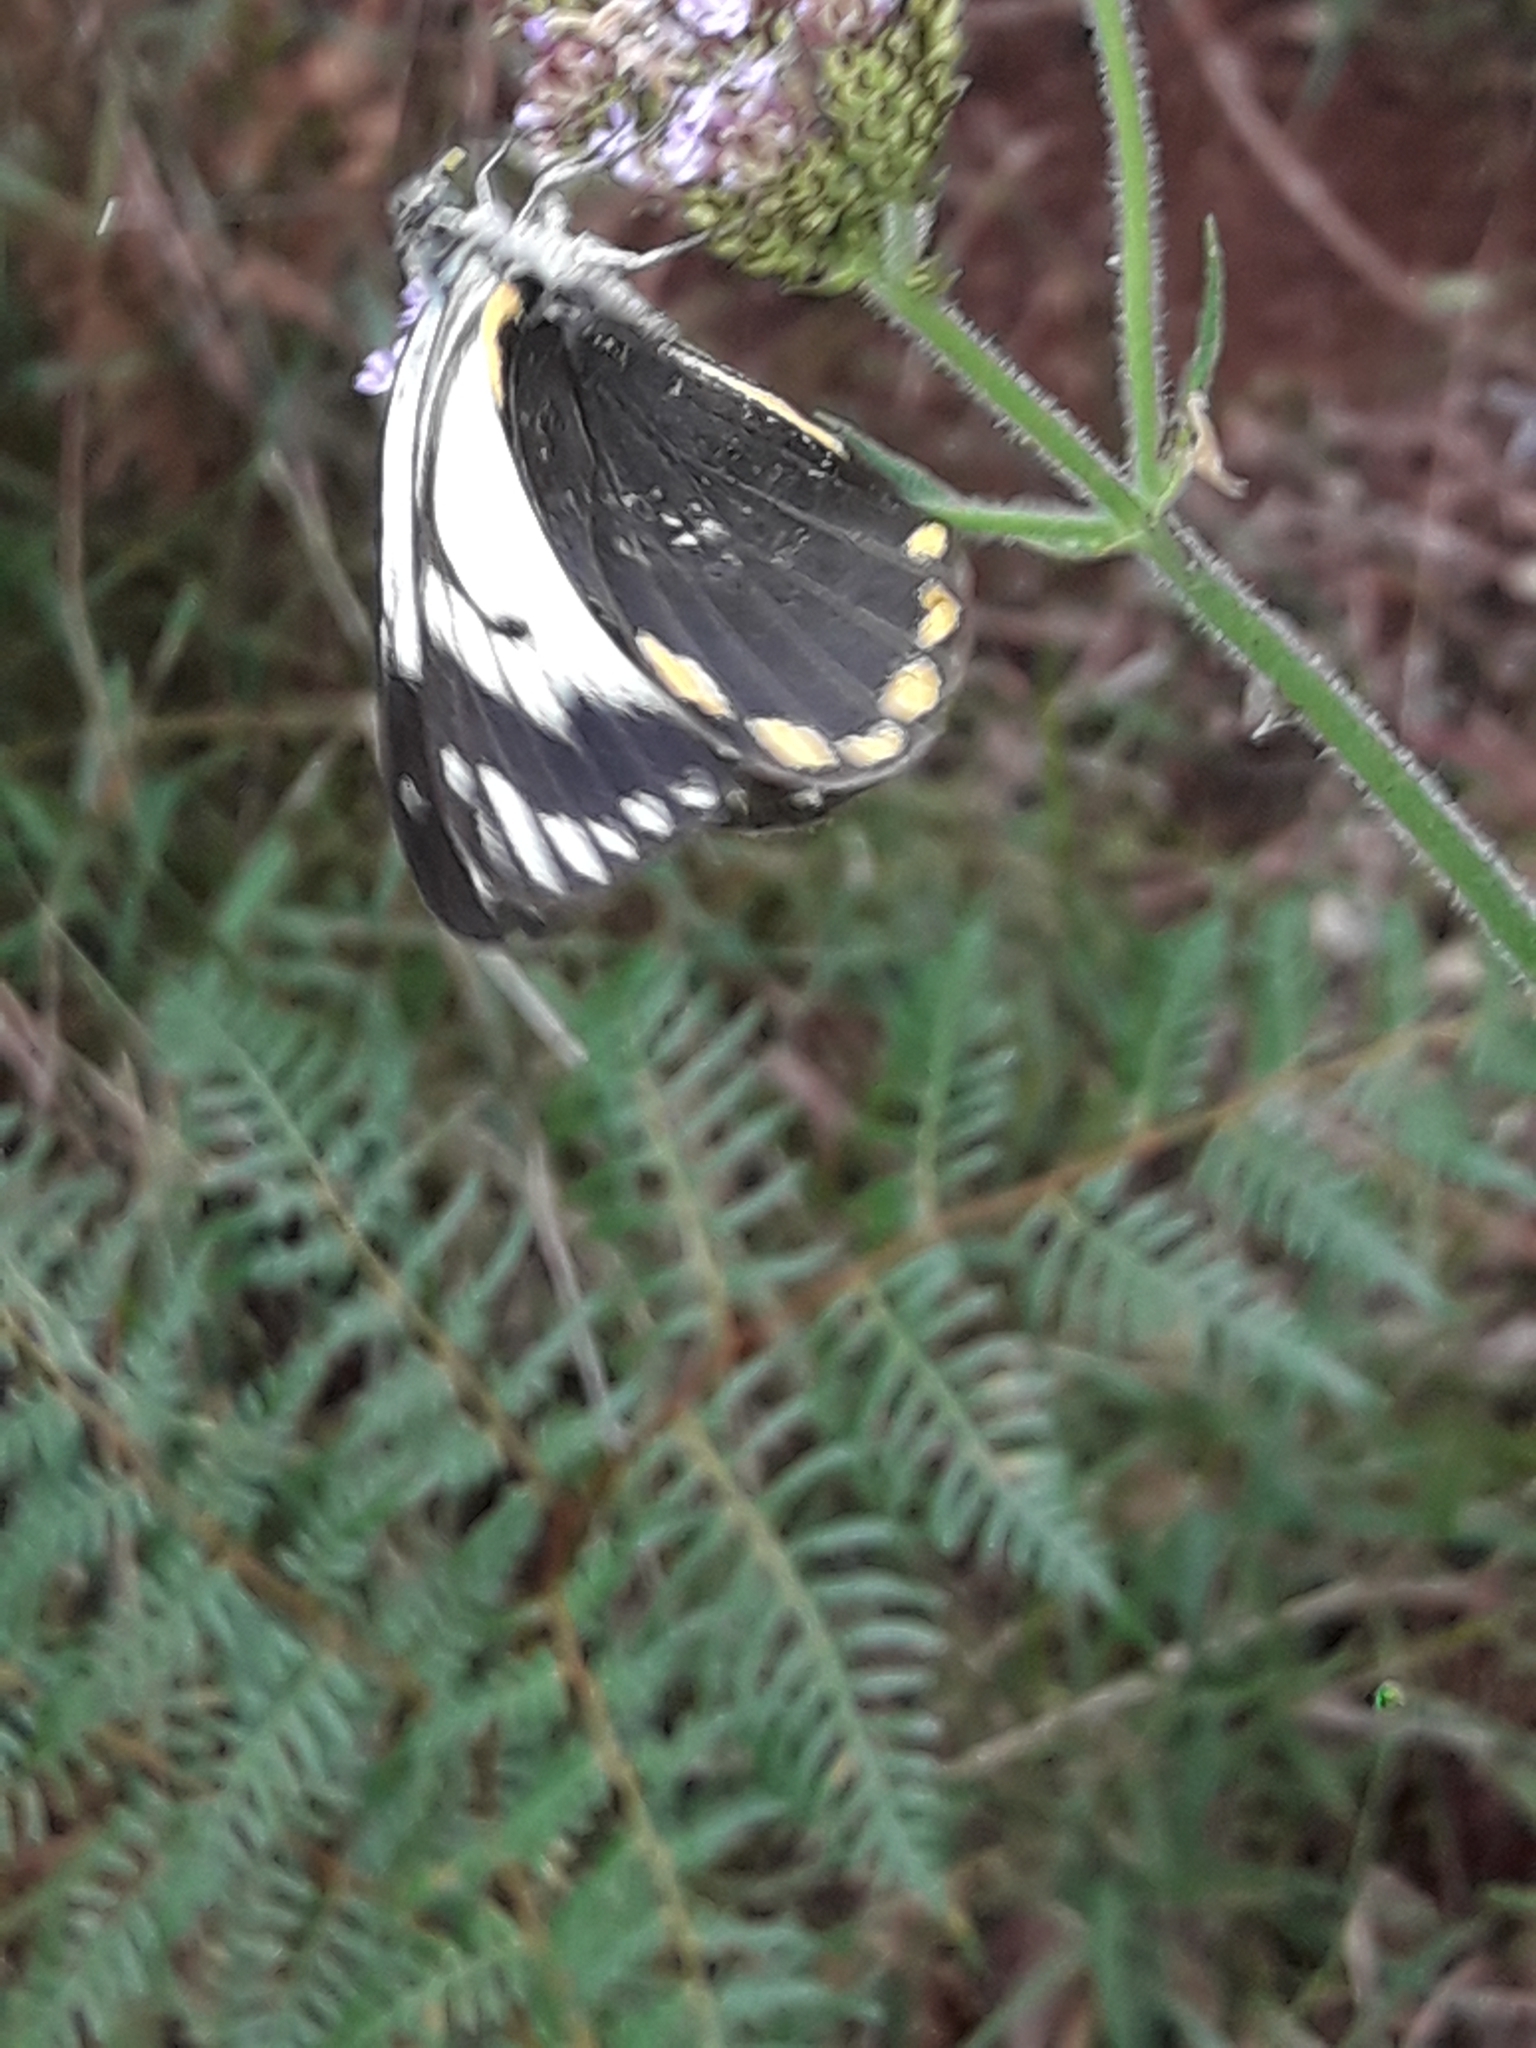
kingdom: Animalia
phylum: Arthropoda
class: Insecta
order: Lepidoptera
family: Pieridae
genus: Belenois
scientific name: Belenois java
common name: Caper white
